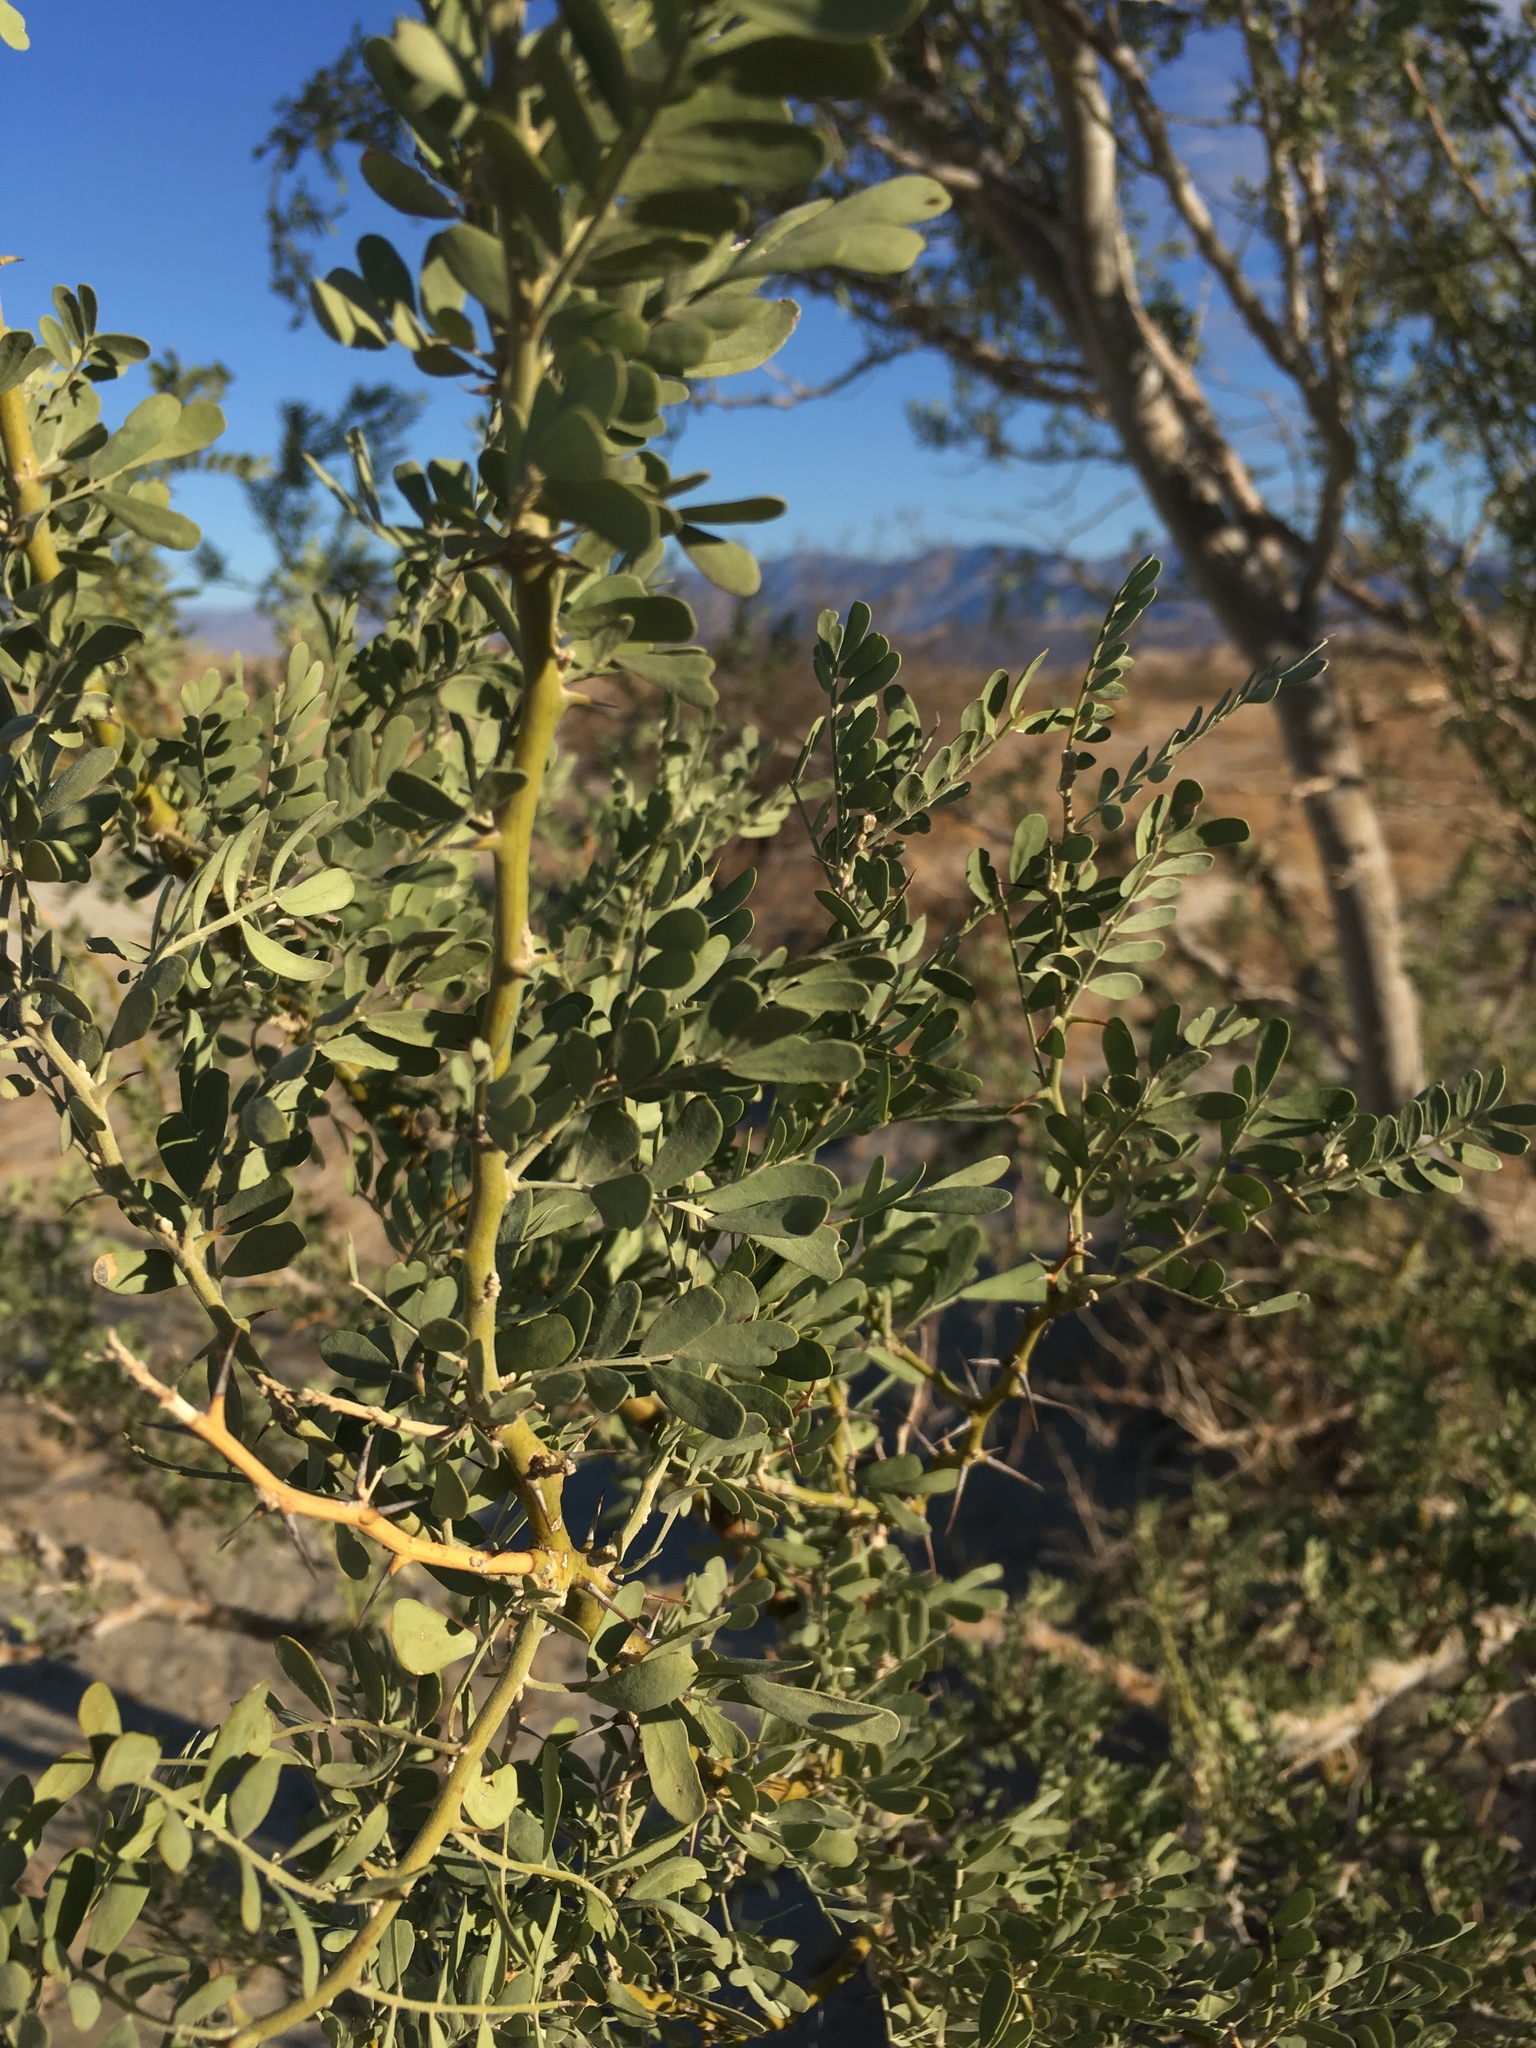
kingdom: Plantae
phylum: Tracheophyta
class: Magnoliopsida
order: Fabales
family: Fabaceae
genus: Olneya
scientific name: Olneya tesota
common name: Desert ironwood
